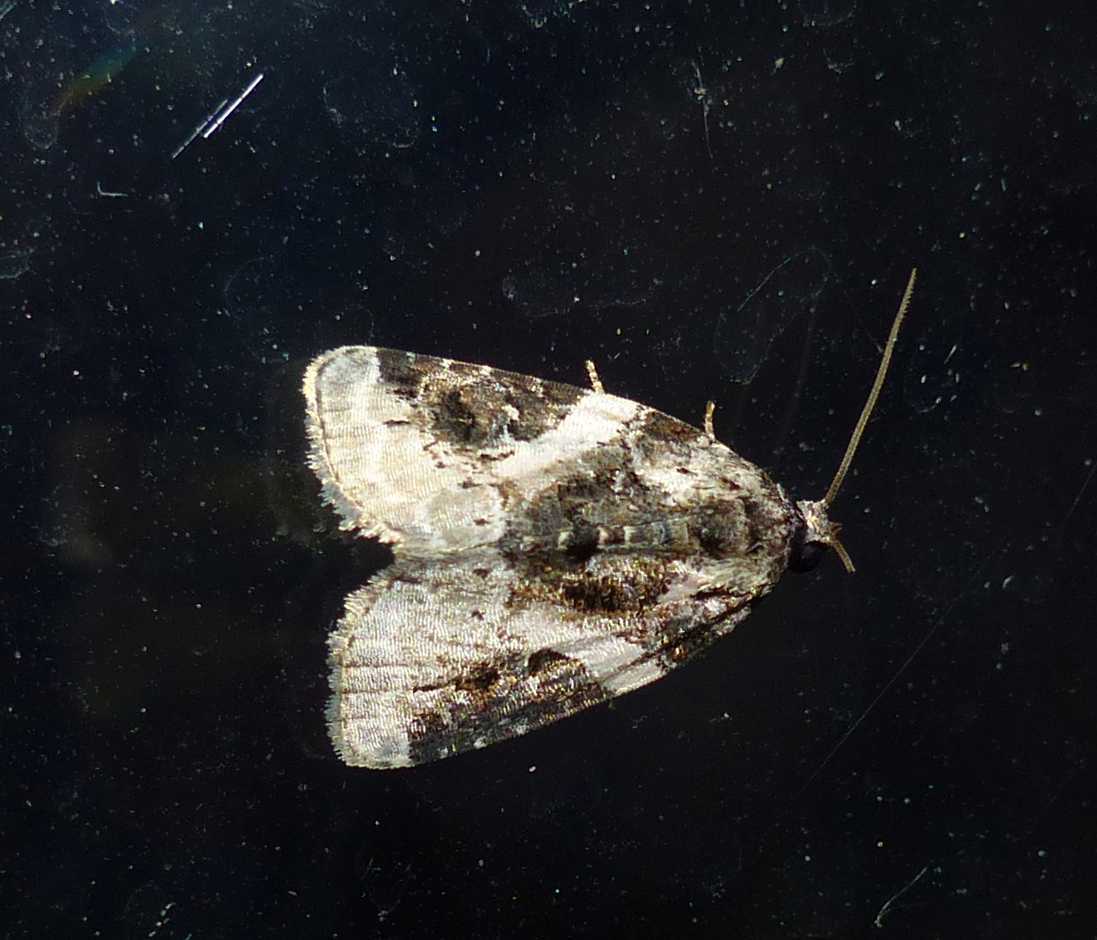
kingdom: Animalia
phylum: Arthropoda
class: Insecta
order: Lepidoptera
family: Noctuidae
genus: Pseudeustrotia
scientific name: Pseudeustrotia carneola
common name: Pink-barred lithacodia moth
